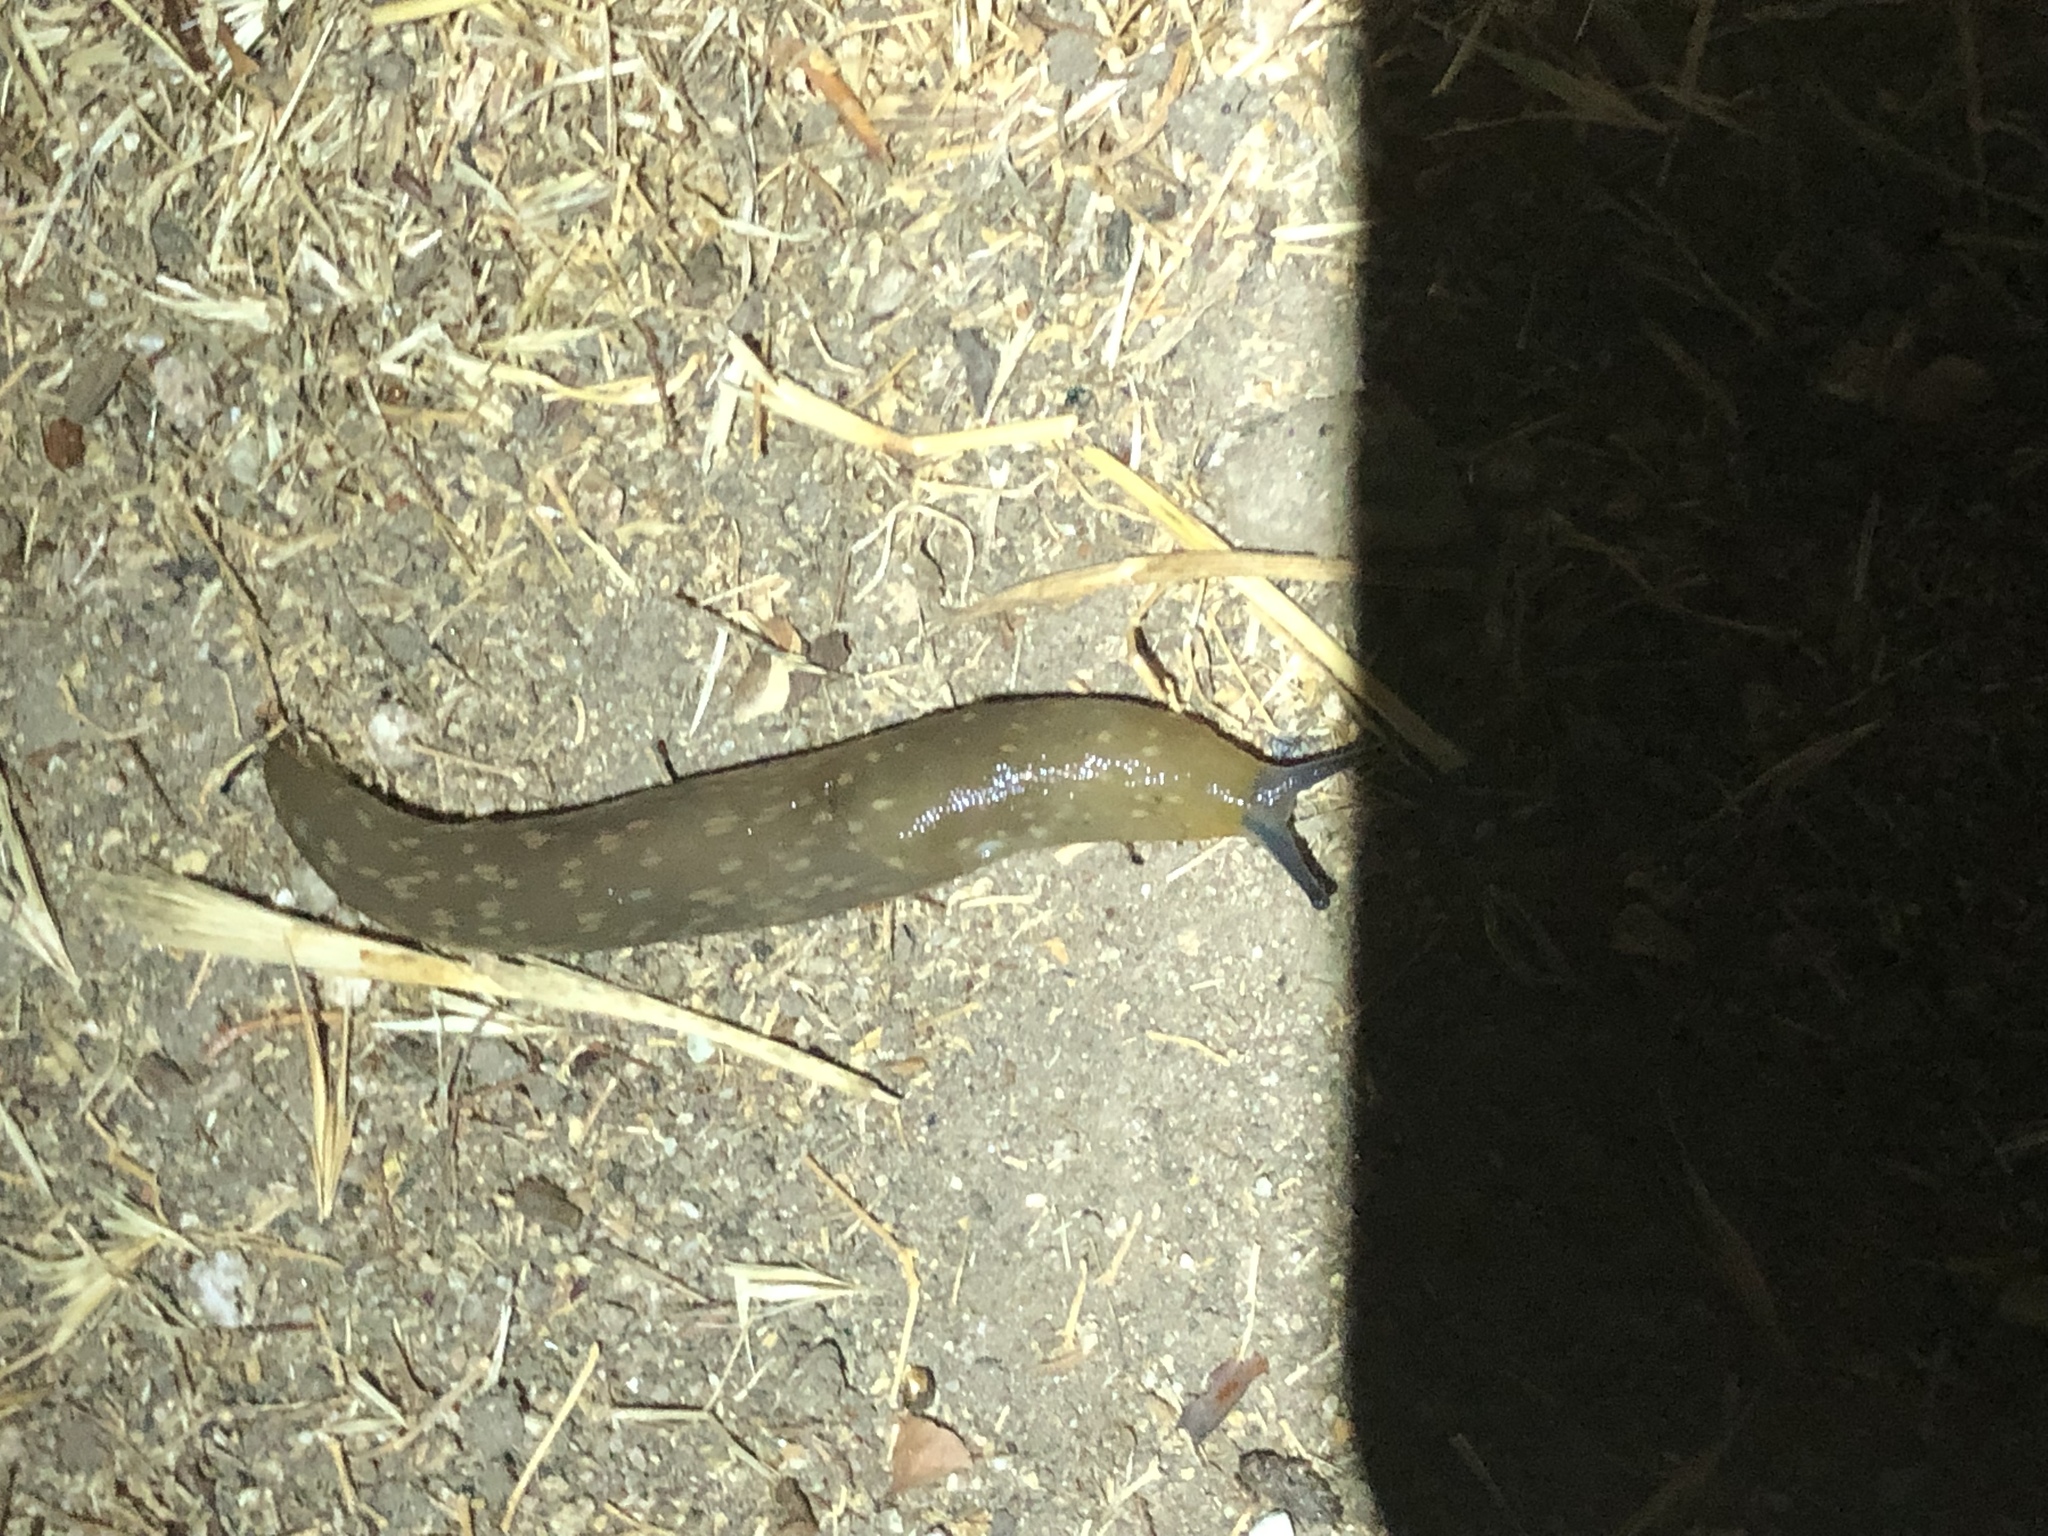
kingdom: Animalia
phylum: Mollusca
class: Gastropoda
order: Stylommatophora
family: Limacidae
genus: Limacus
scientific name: Limacus flavus
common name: Yellow gardenslug
